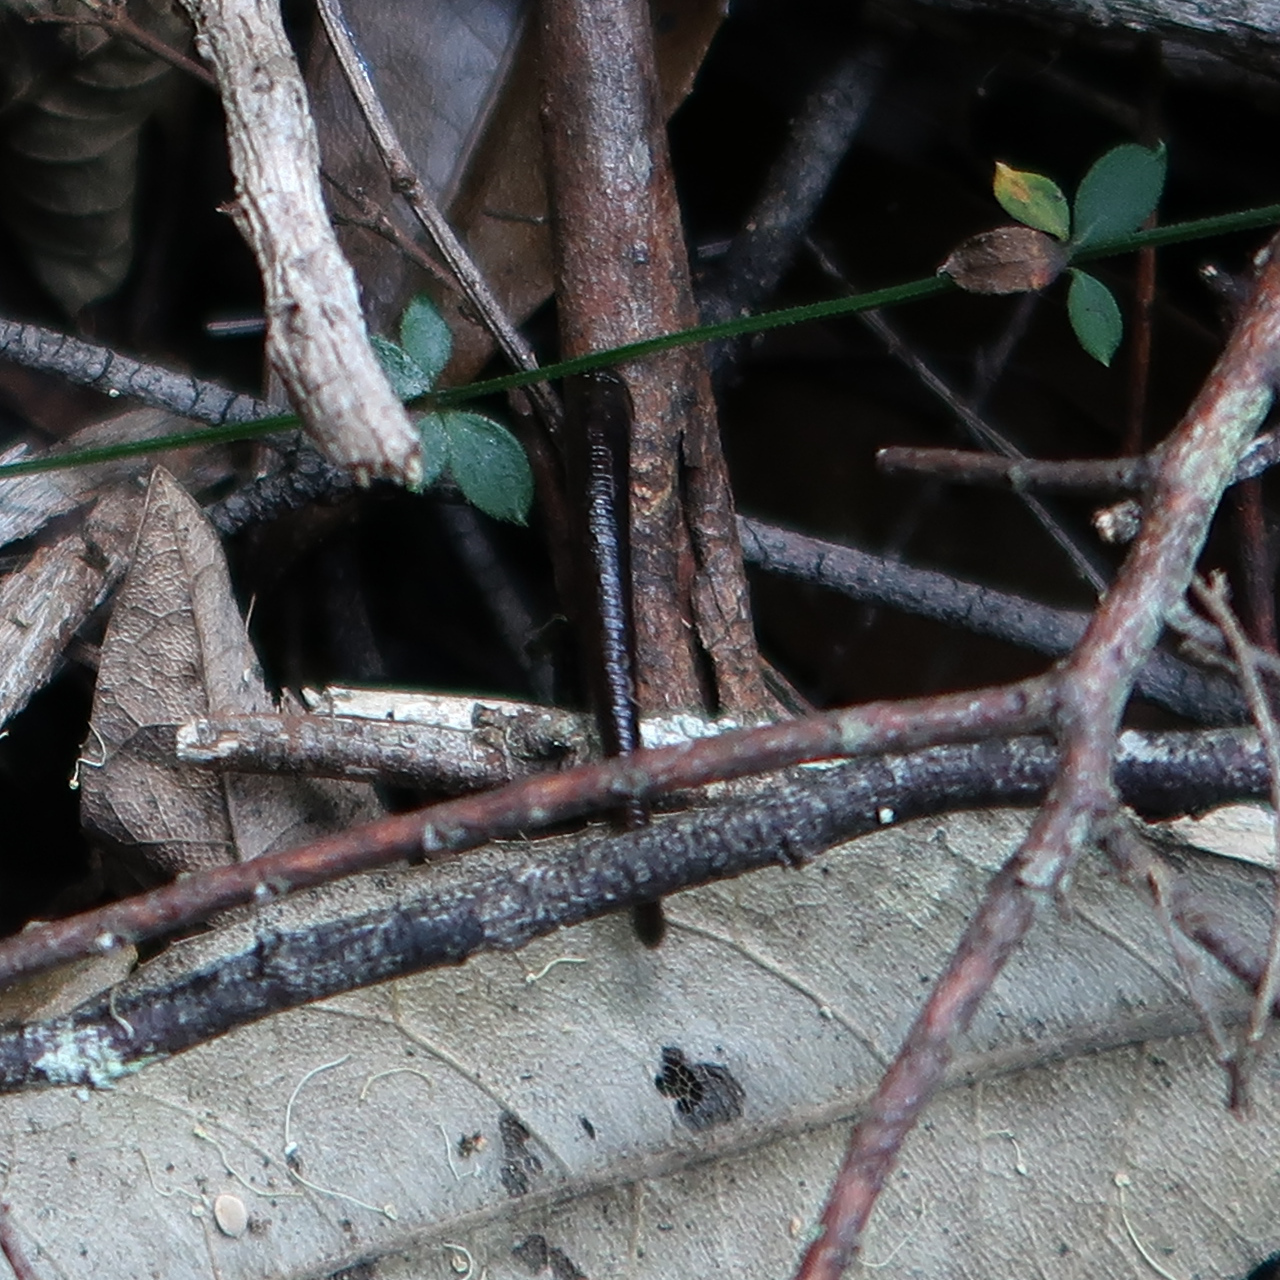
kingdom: Animalia
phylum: Annelida
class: Clitellata
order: Arhynchobdellida
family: Haemadipsidae
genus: Philaemon
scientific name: Philaemon pungens
